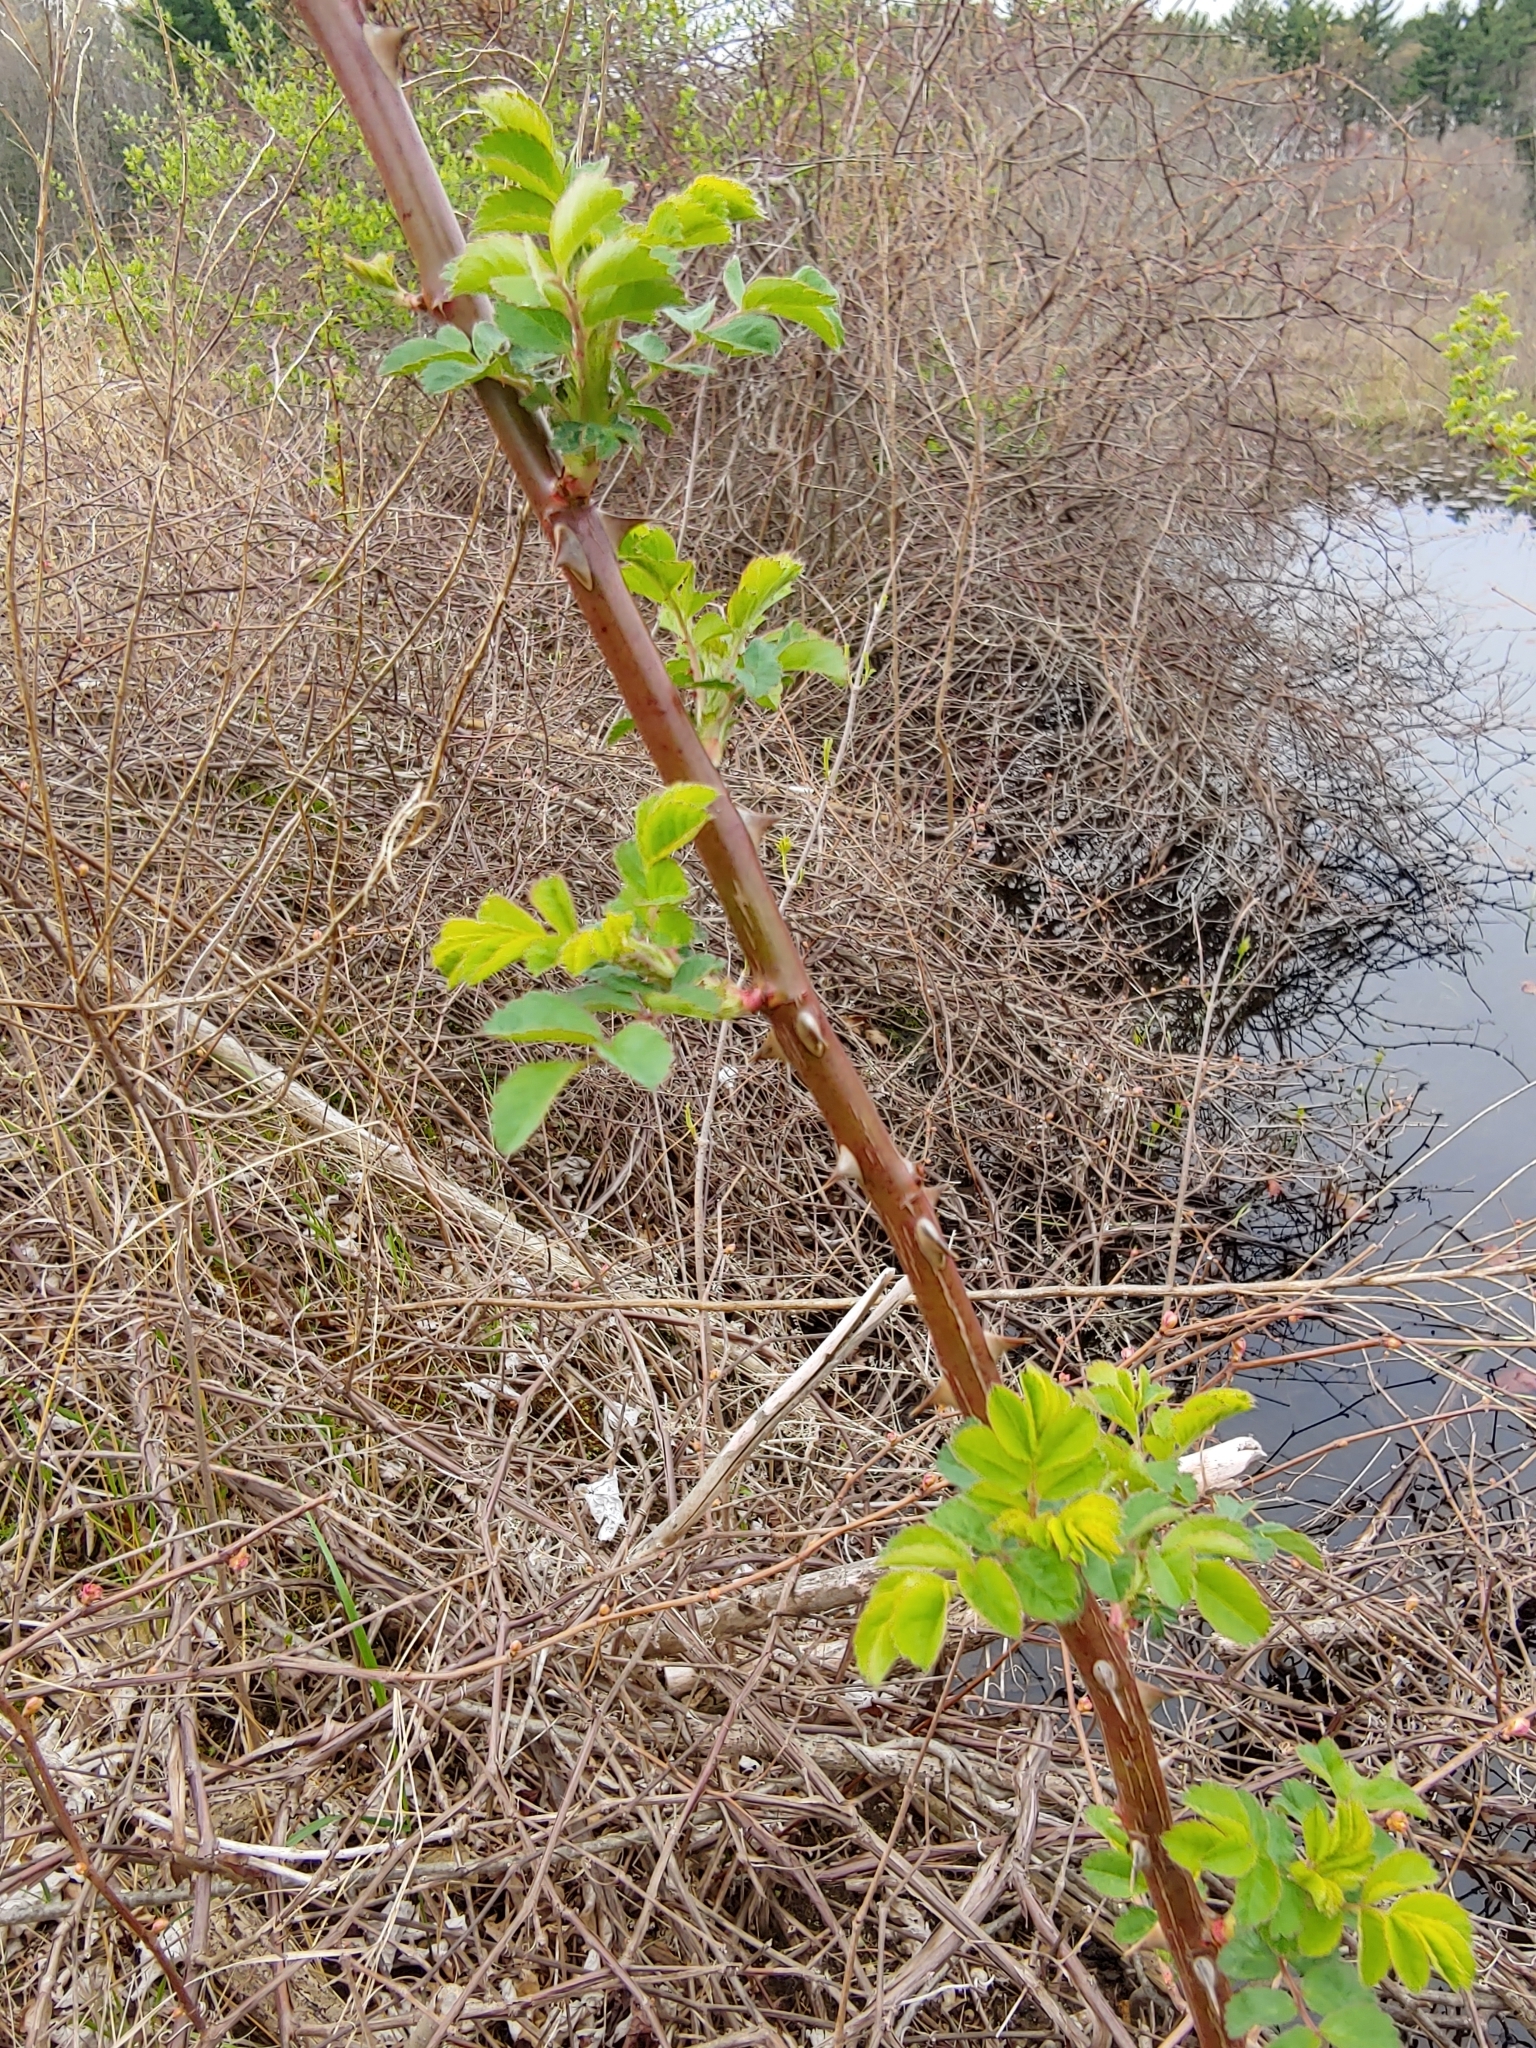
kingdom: Plantae
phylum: Tracheophyta
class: Magnoliopsida
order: Rosales
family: Rosaceae
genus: Rosa
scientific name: Rosa multiflora
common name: Multiflora rose
